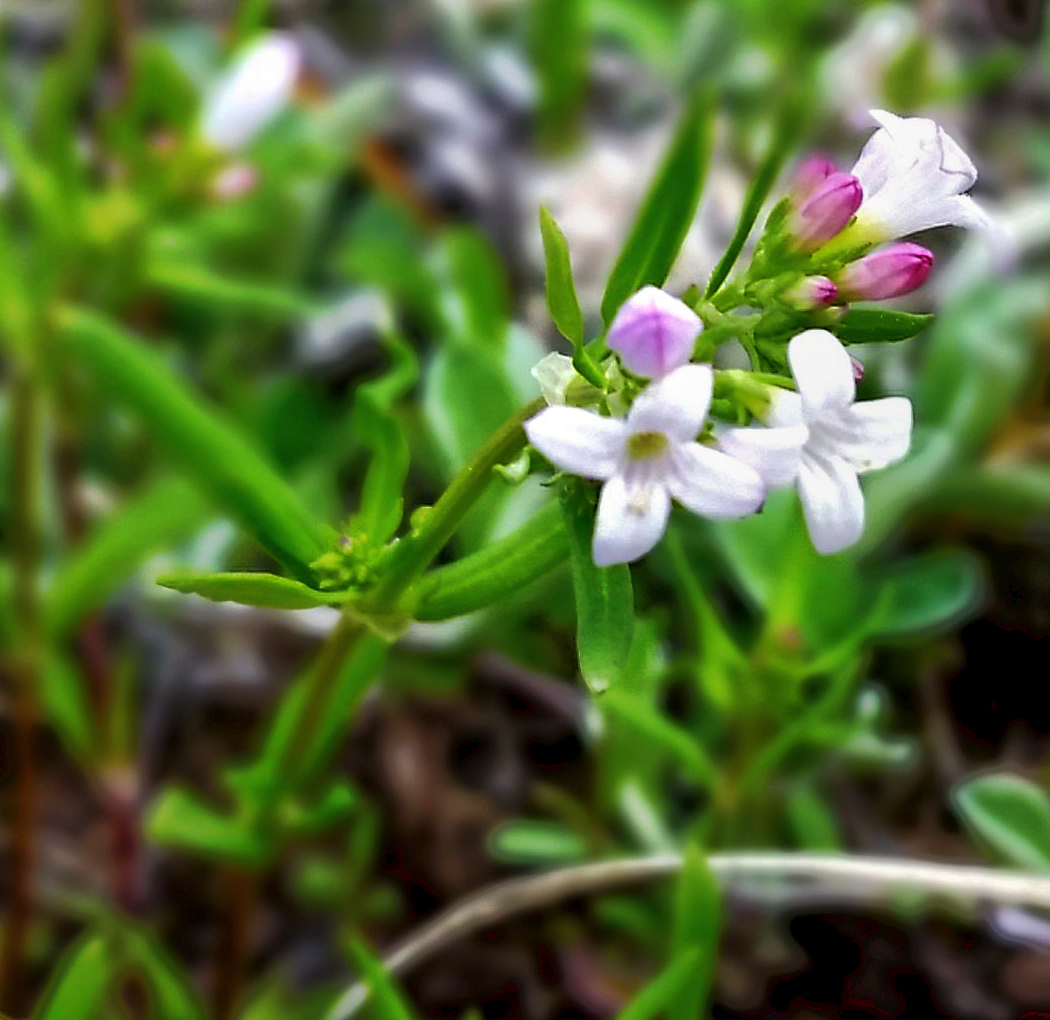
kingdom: Plantae
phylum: Tracheophyta
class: Magnoliopsida
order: Gentianales
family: Rubiaceae
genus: Houstonia
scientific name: Houstonia longifolia
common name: Long-leaved bluets
